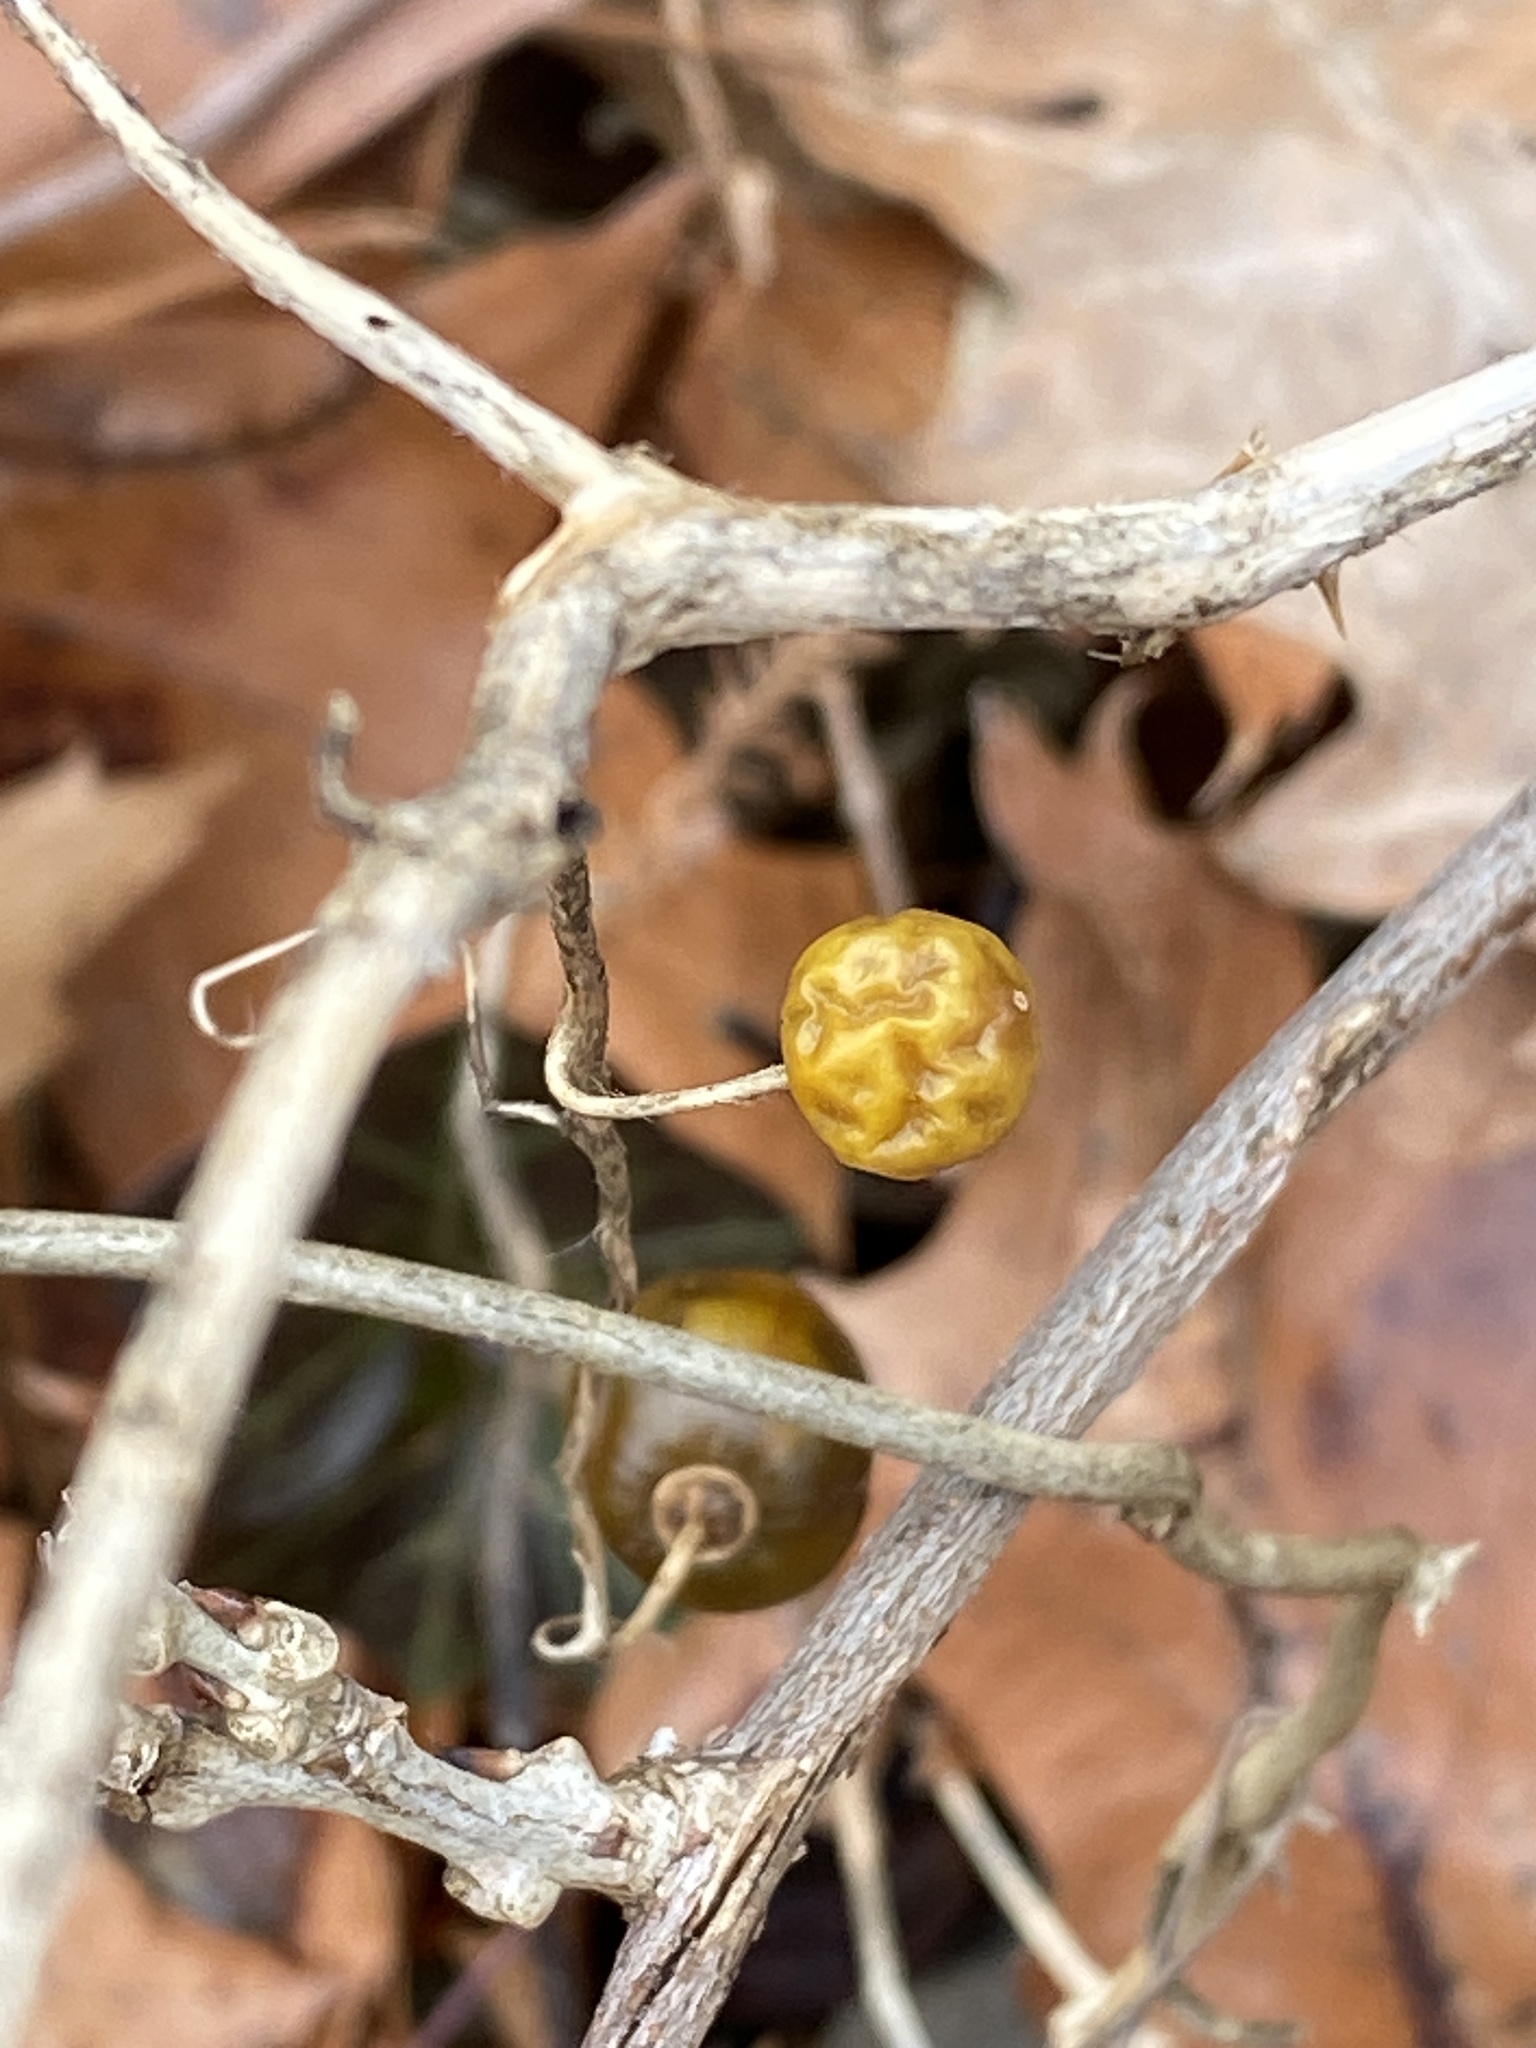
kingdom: Plantae
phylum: Tracheophyta
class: Magnoliopsida
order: Solanales
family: Solanaceae
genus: Solanum
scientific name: Solanum carolinense
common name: Horse-nettle
